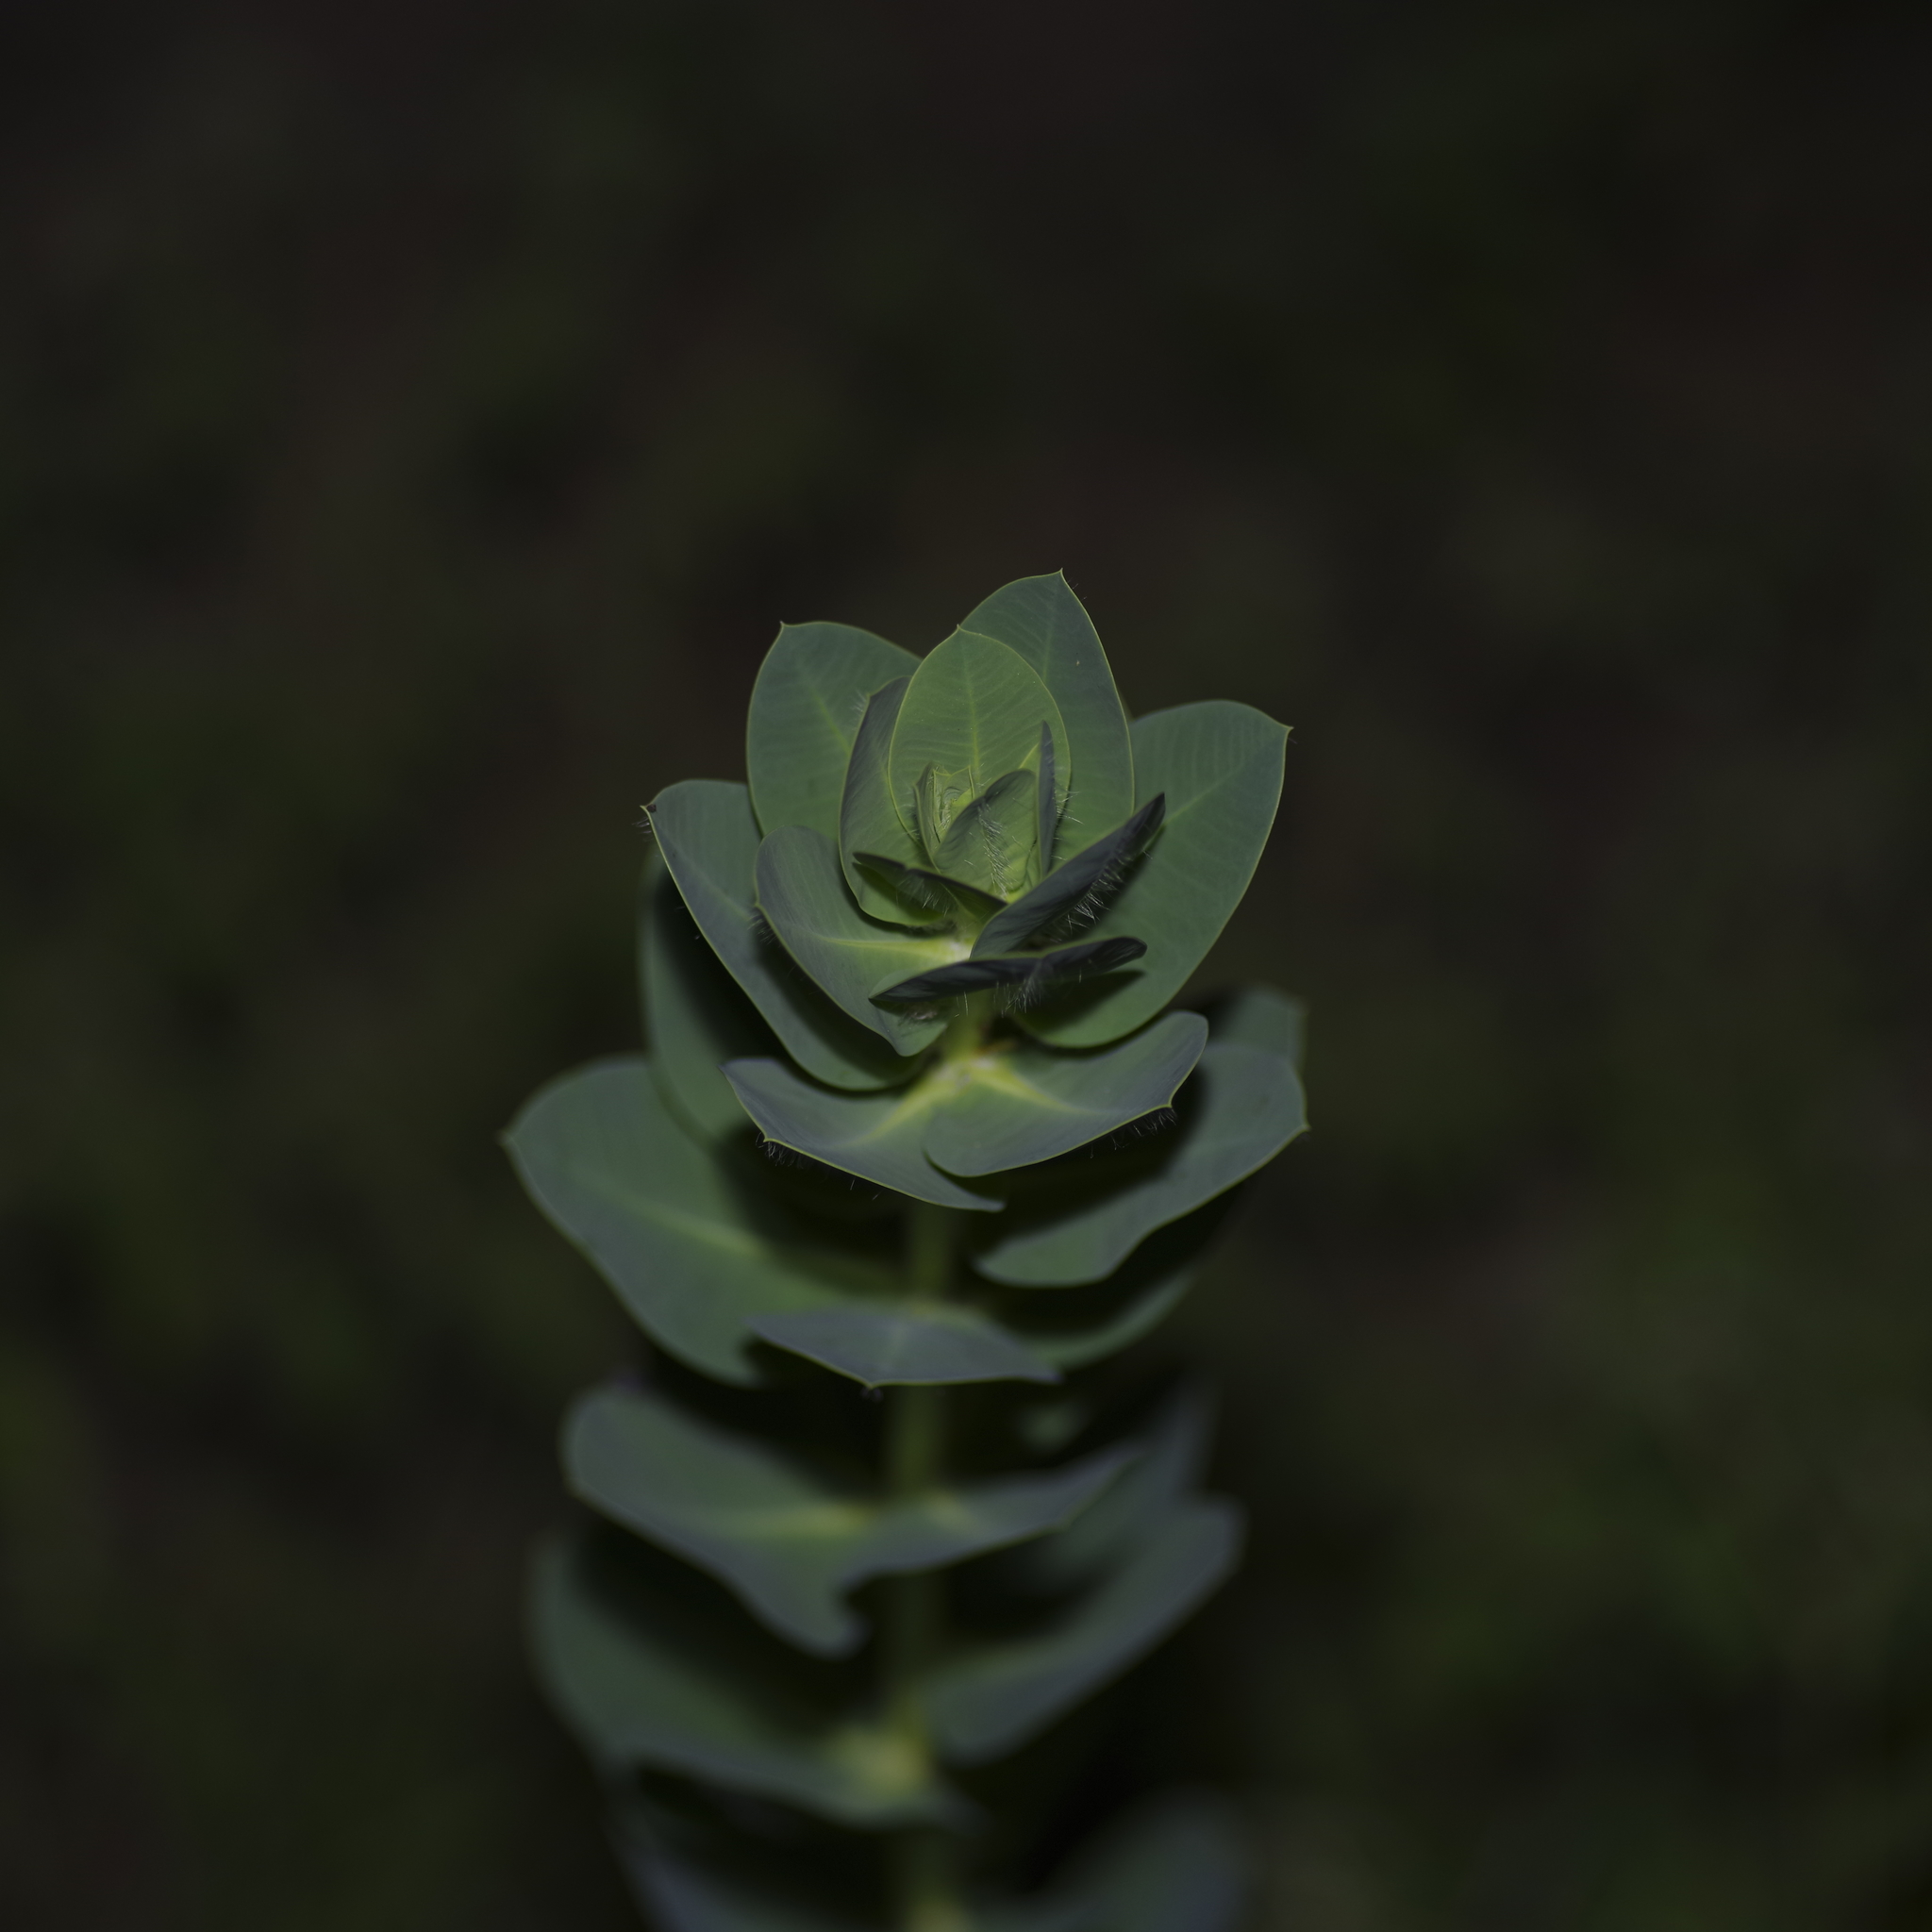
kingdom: Plantae
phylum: Tracheophyta
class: Magnoliopsida
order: Malpighiales
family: Euphorbiaceae
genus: Euphorbia
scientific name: Euphorbia marginata
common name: Ghostweed
